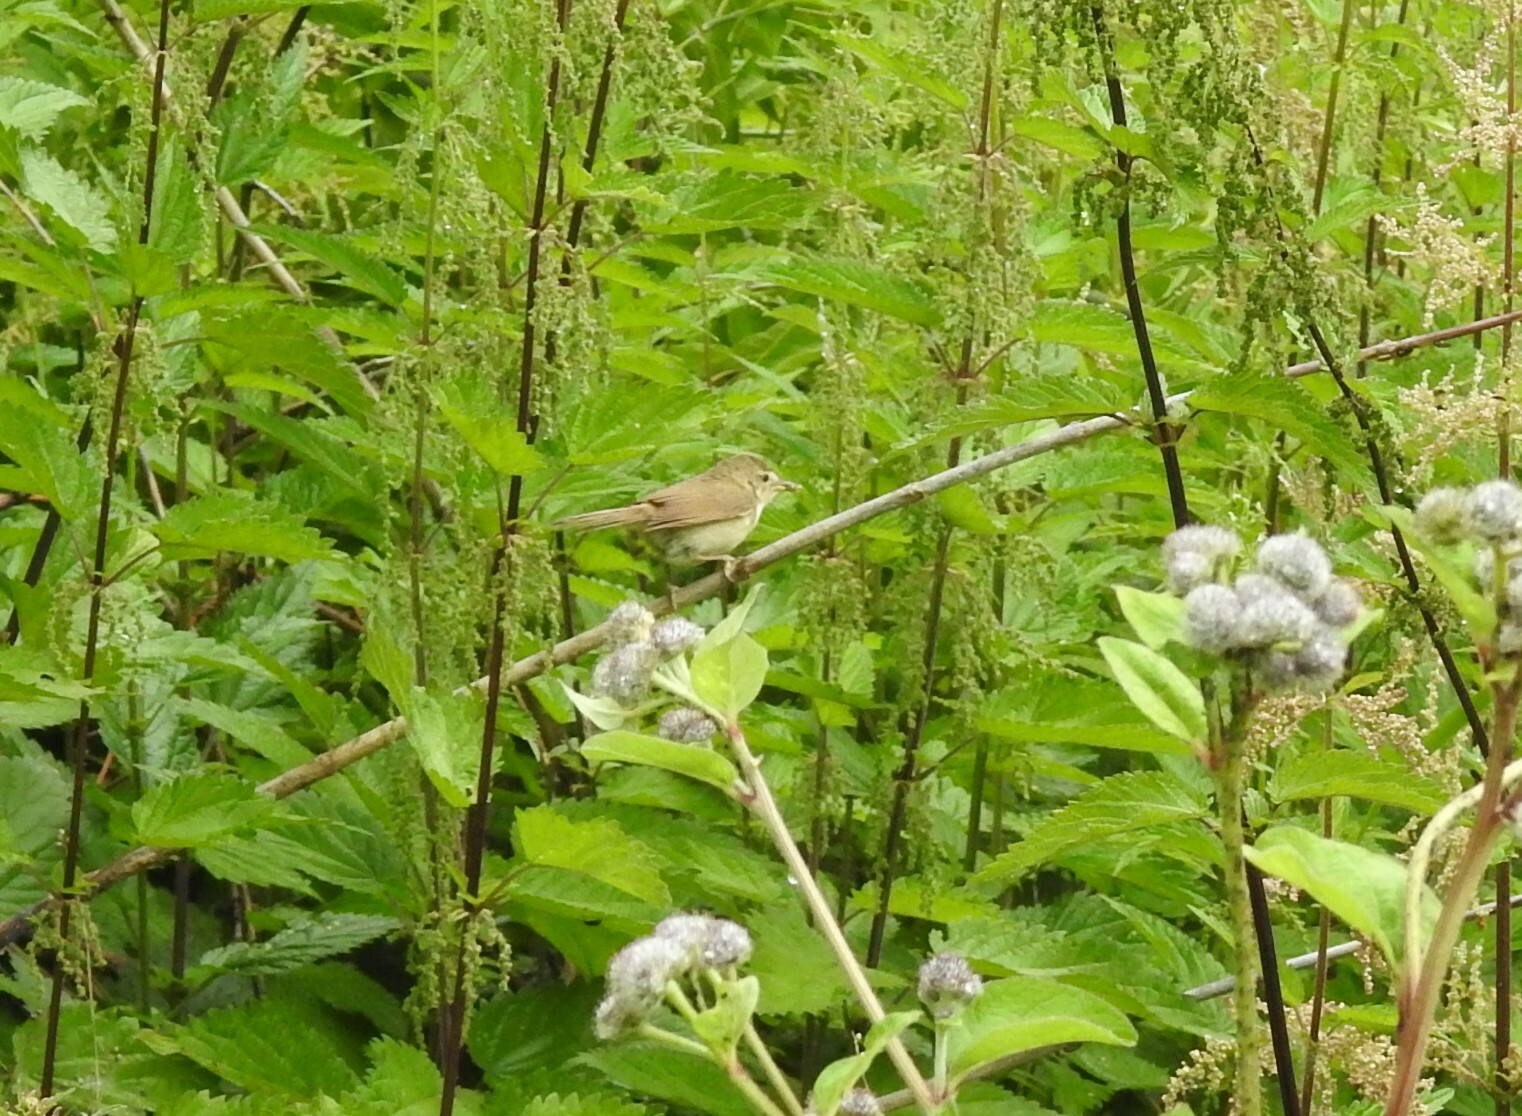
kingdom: Animalia
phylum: Chordata
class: Aves
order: Passeriformes
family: Acrocephalidae
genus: Acrocephalus
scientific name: Acrocephalus dumetorum
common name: Blyth's reed warbler
